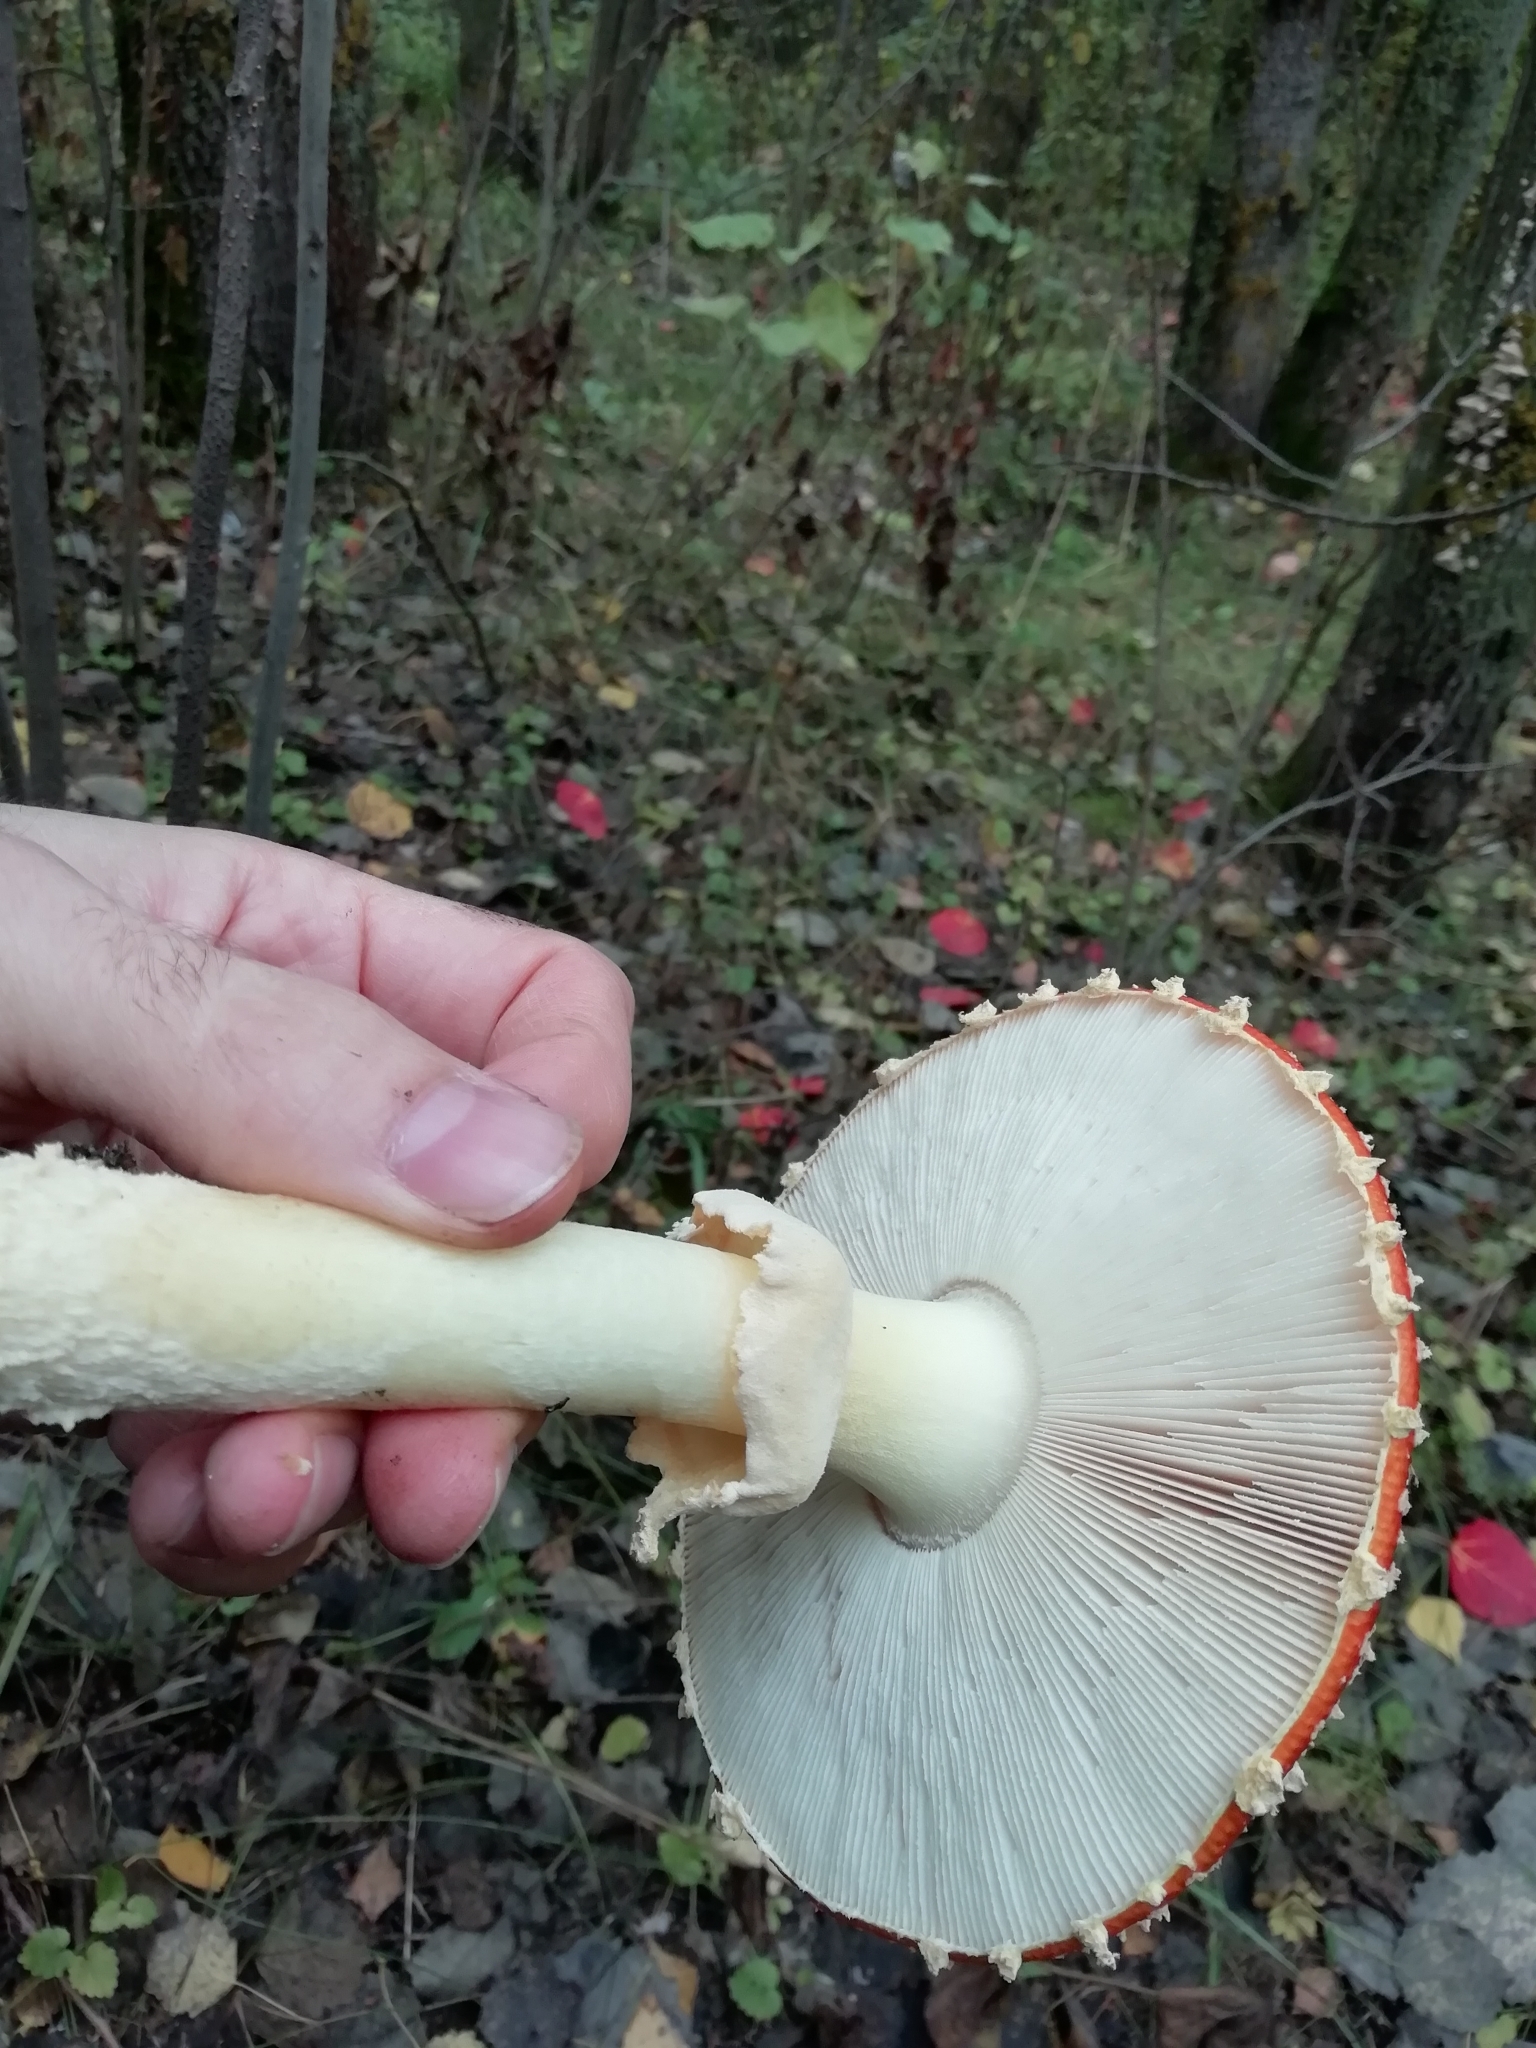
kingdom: Fungi
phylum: Basidiomycota
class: Agaricomycetes
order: Agaricales
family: Amanitaceae
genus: Amanita
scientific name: Amanita muscaria
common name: Fly agaric
